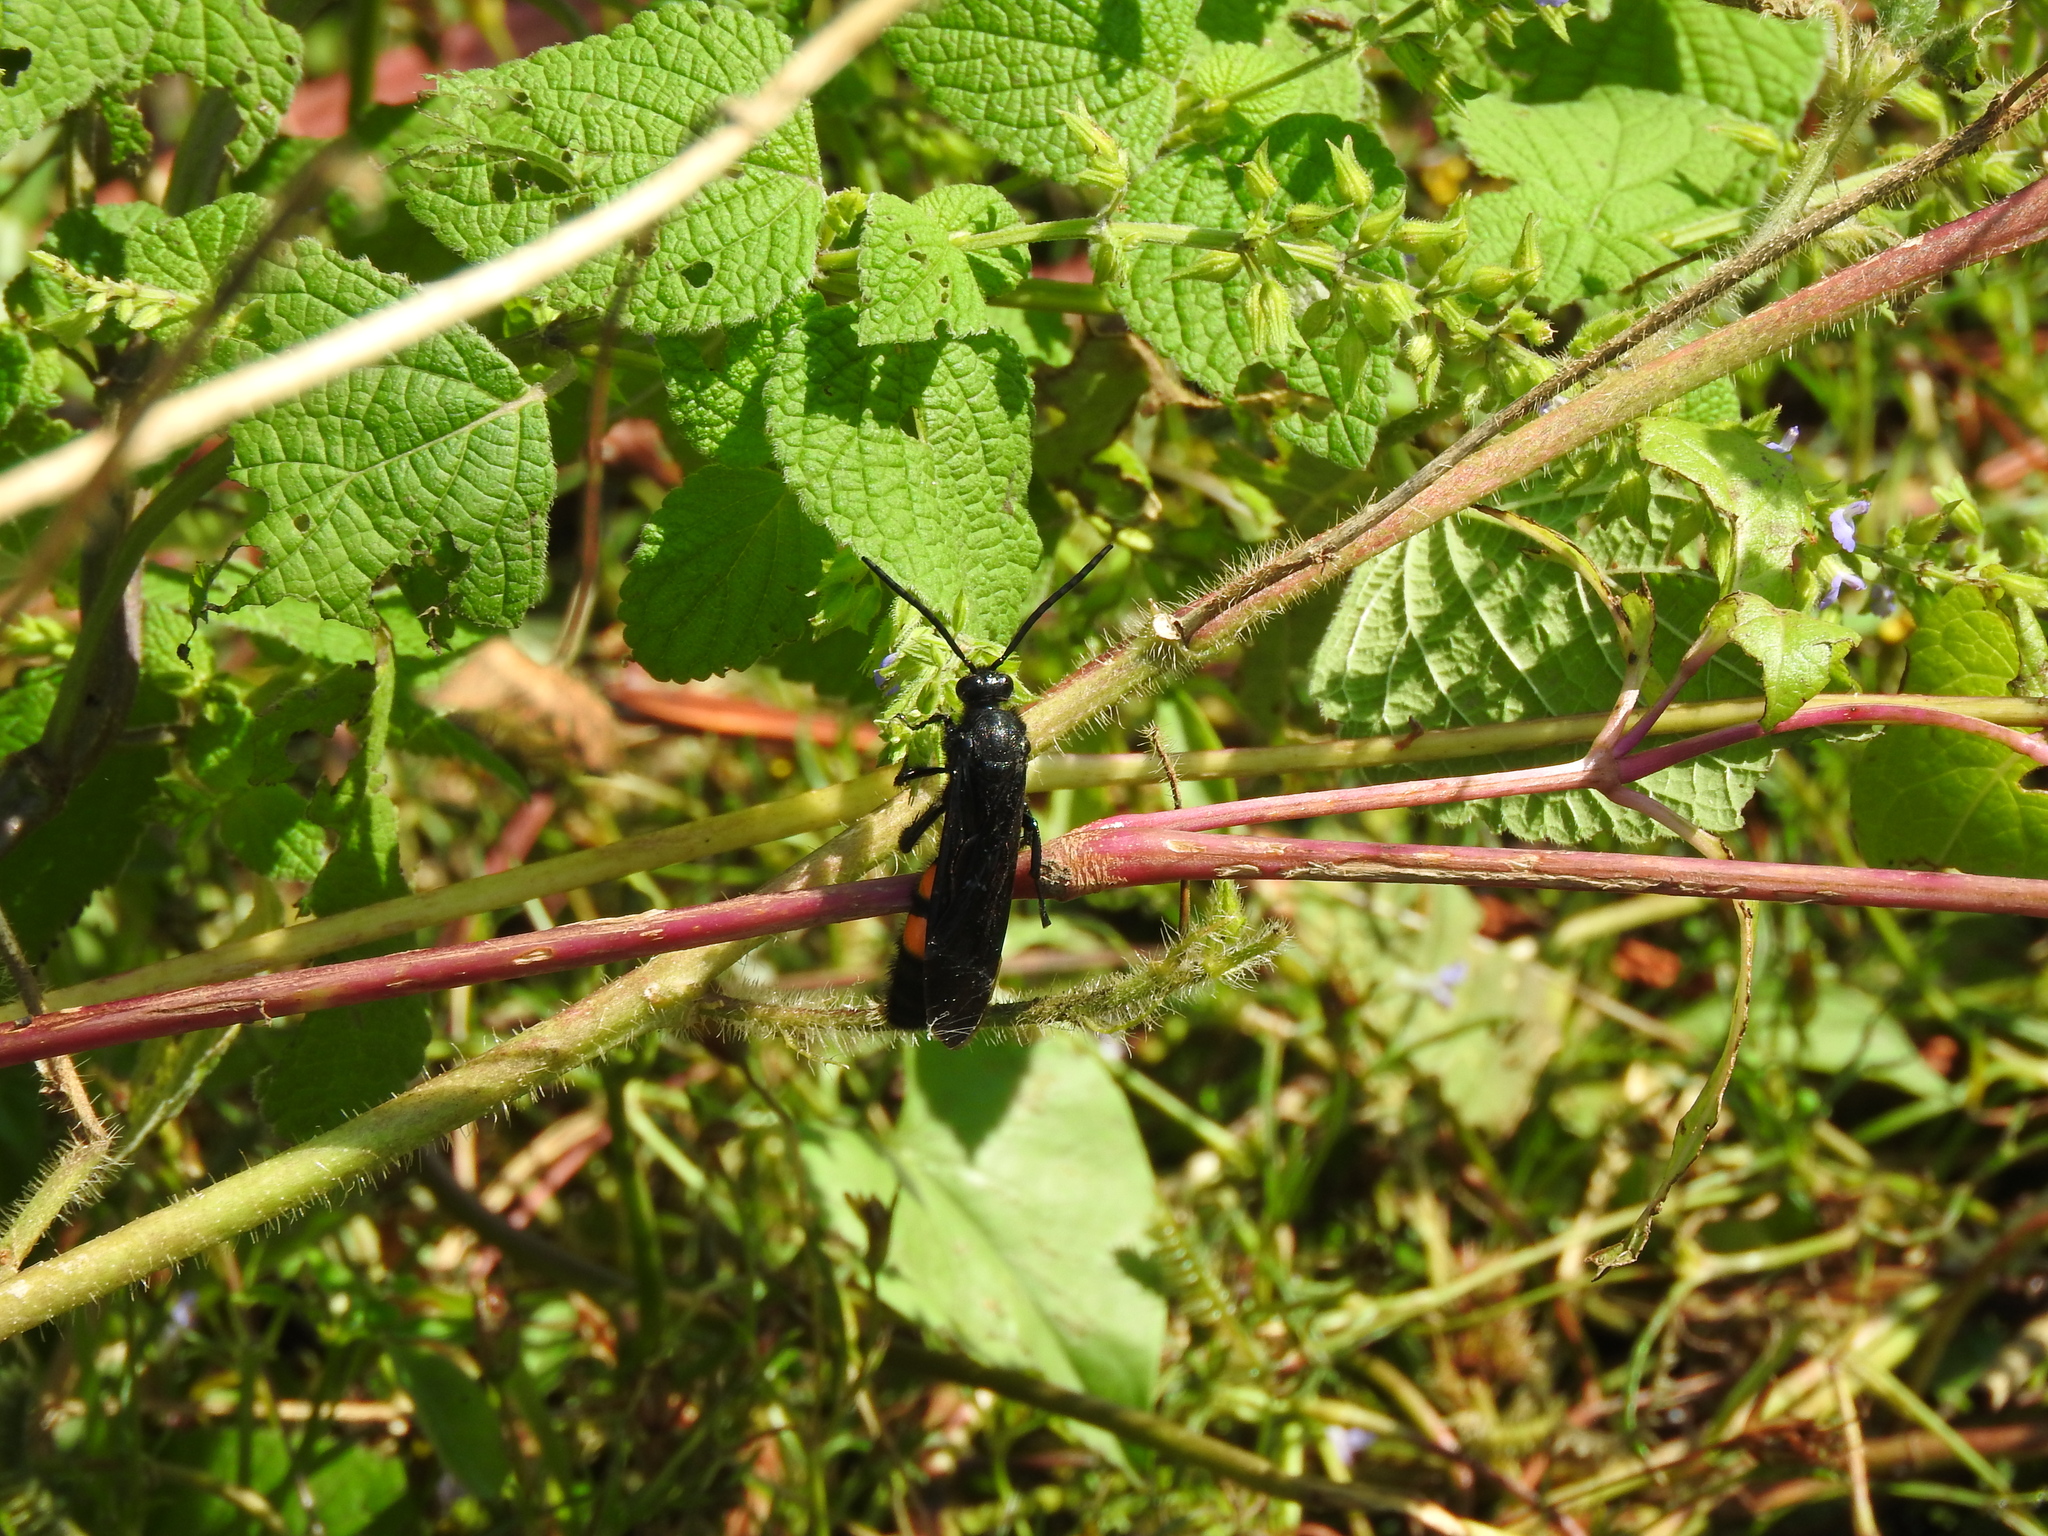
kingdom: Animalia
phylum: Arthropoda
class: Insecta
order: Hymenoptera
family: Scoliidae
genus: Pygodasis
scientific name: Pygodasis ephippium
